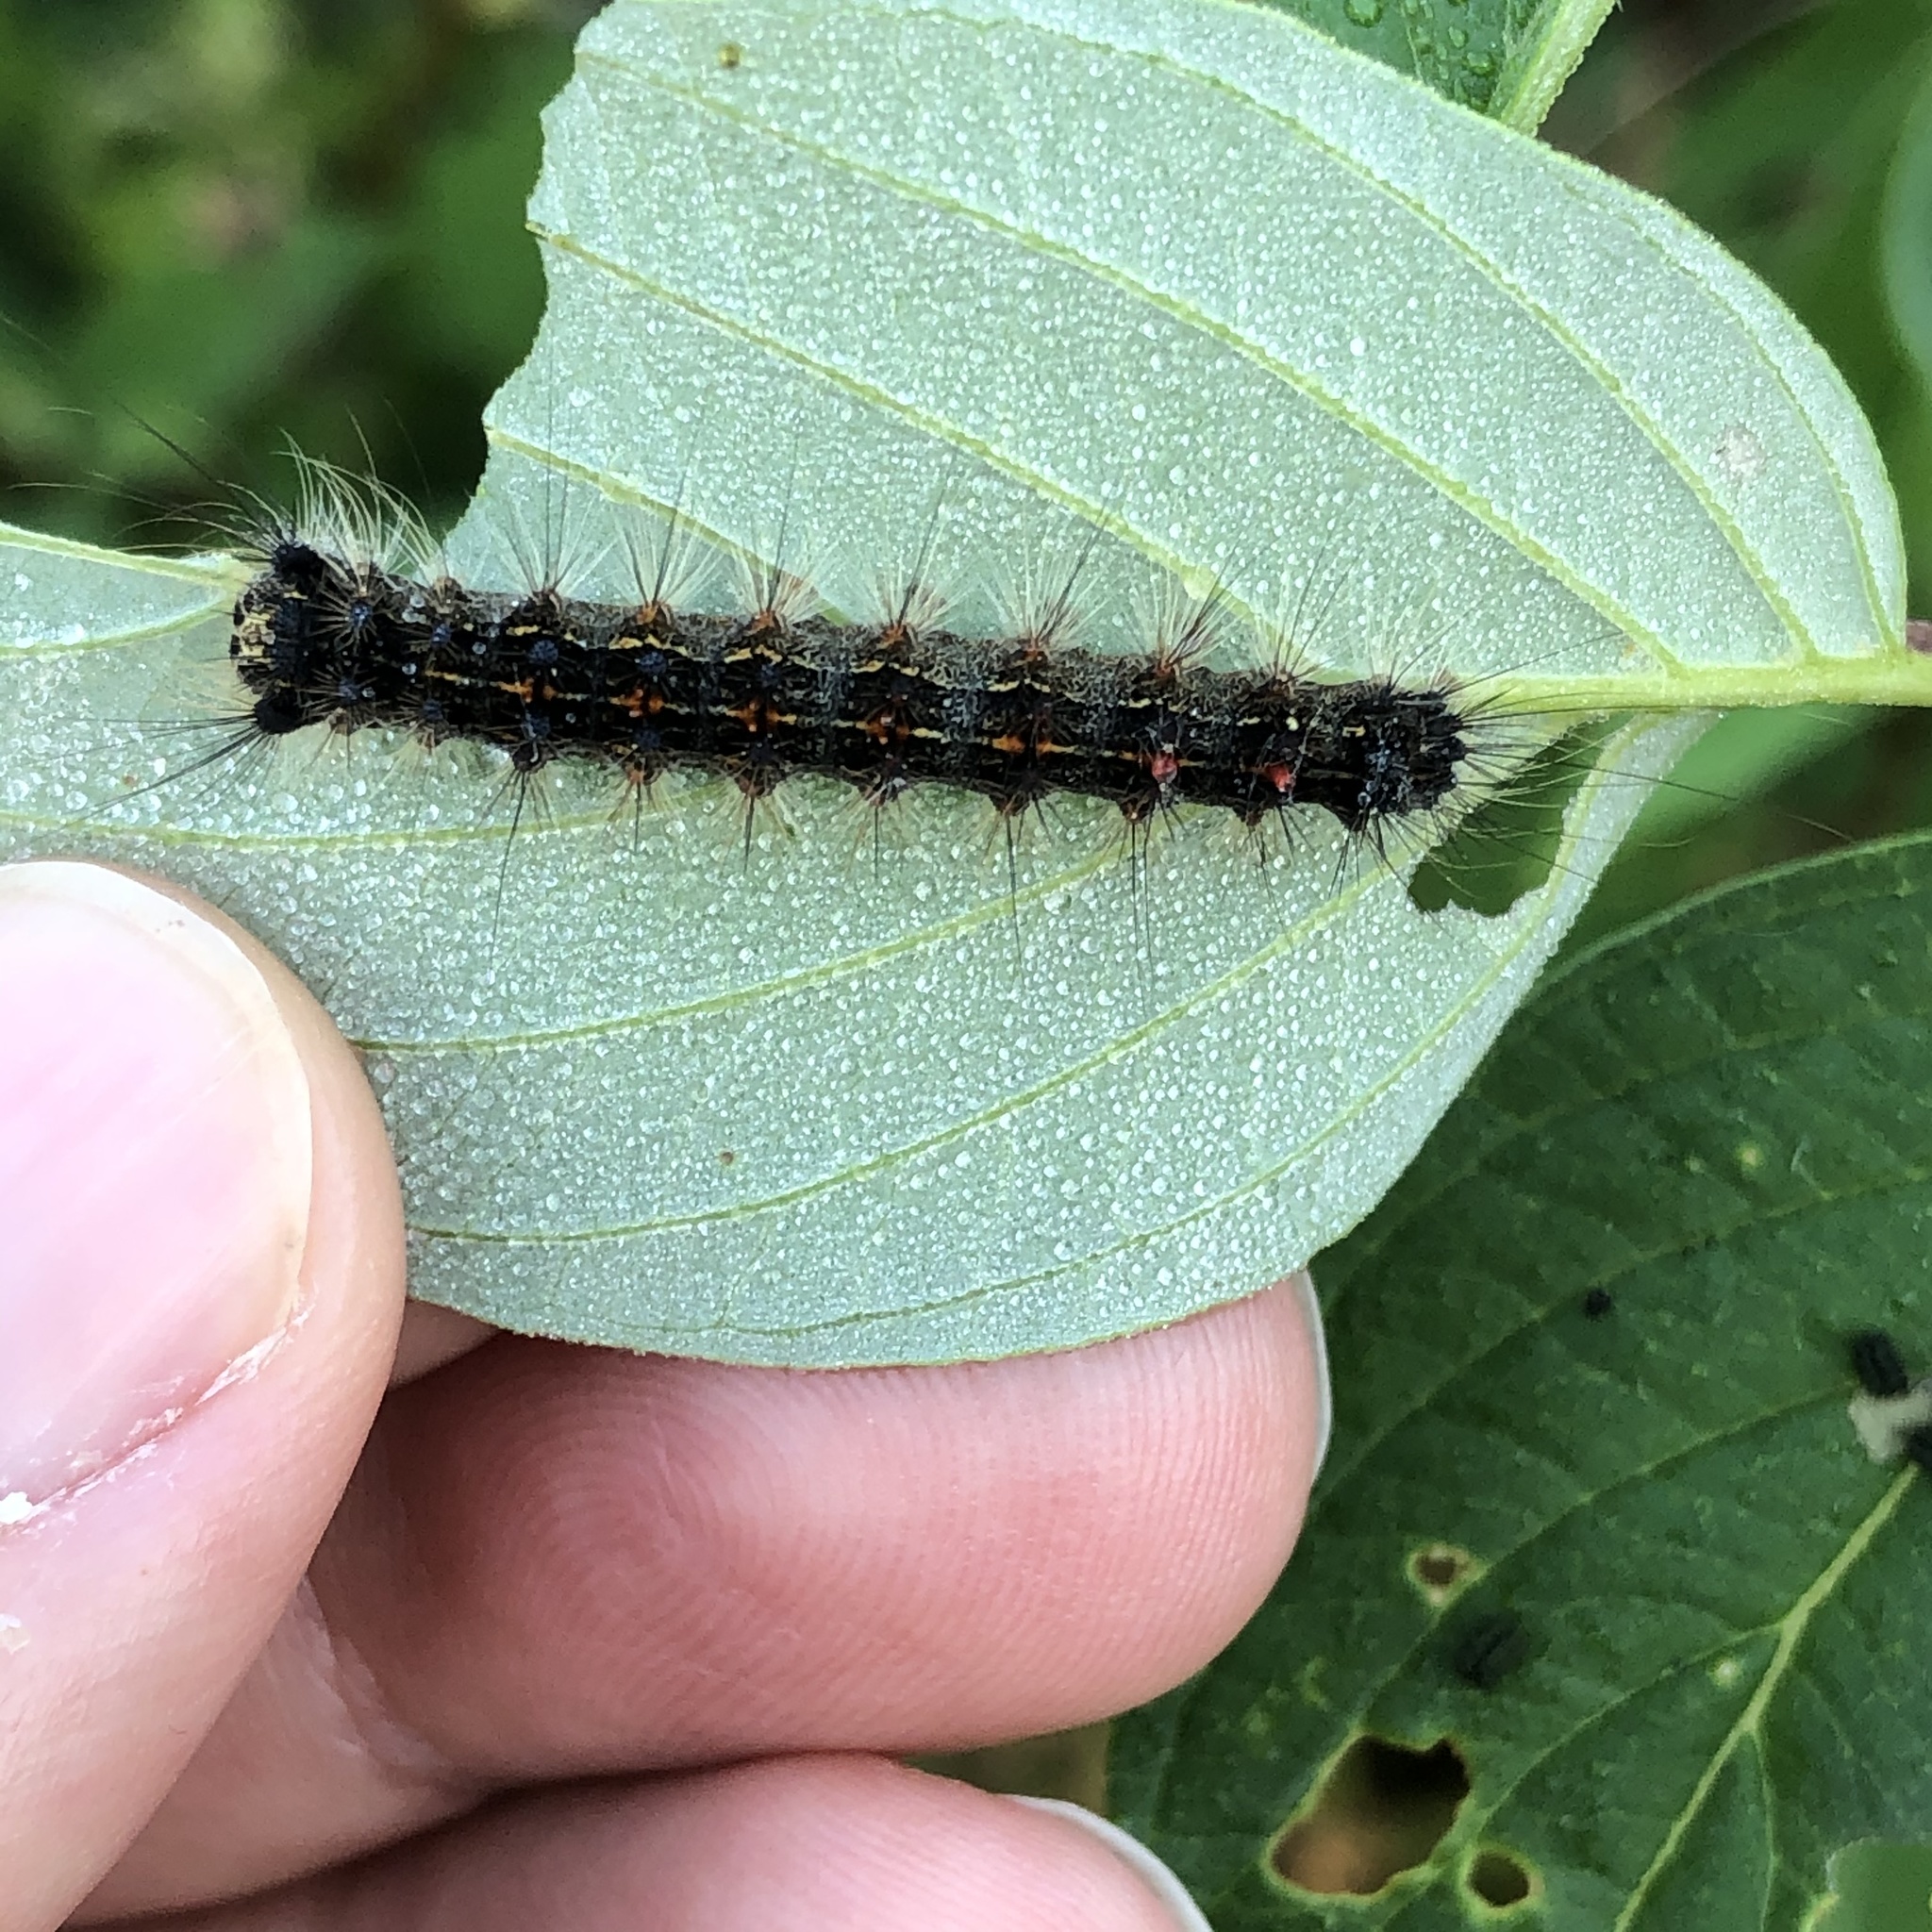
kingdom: Animalia
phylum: Arthropoda
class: Insecta
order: Lepidoptera
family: Erebidae
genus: Lymantria
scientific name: Lymantria dispar
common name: Gypsy moth
